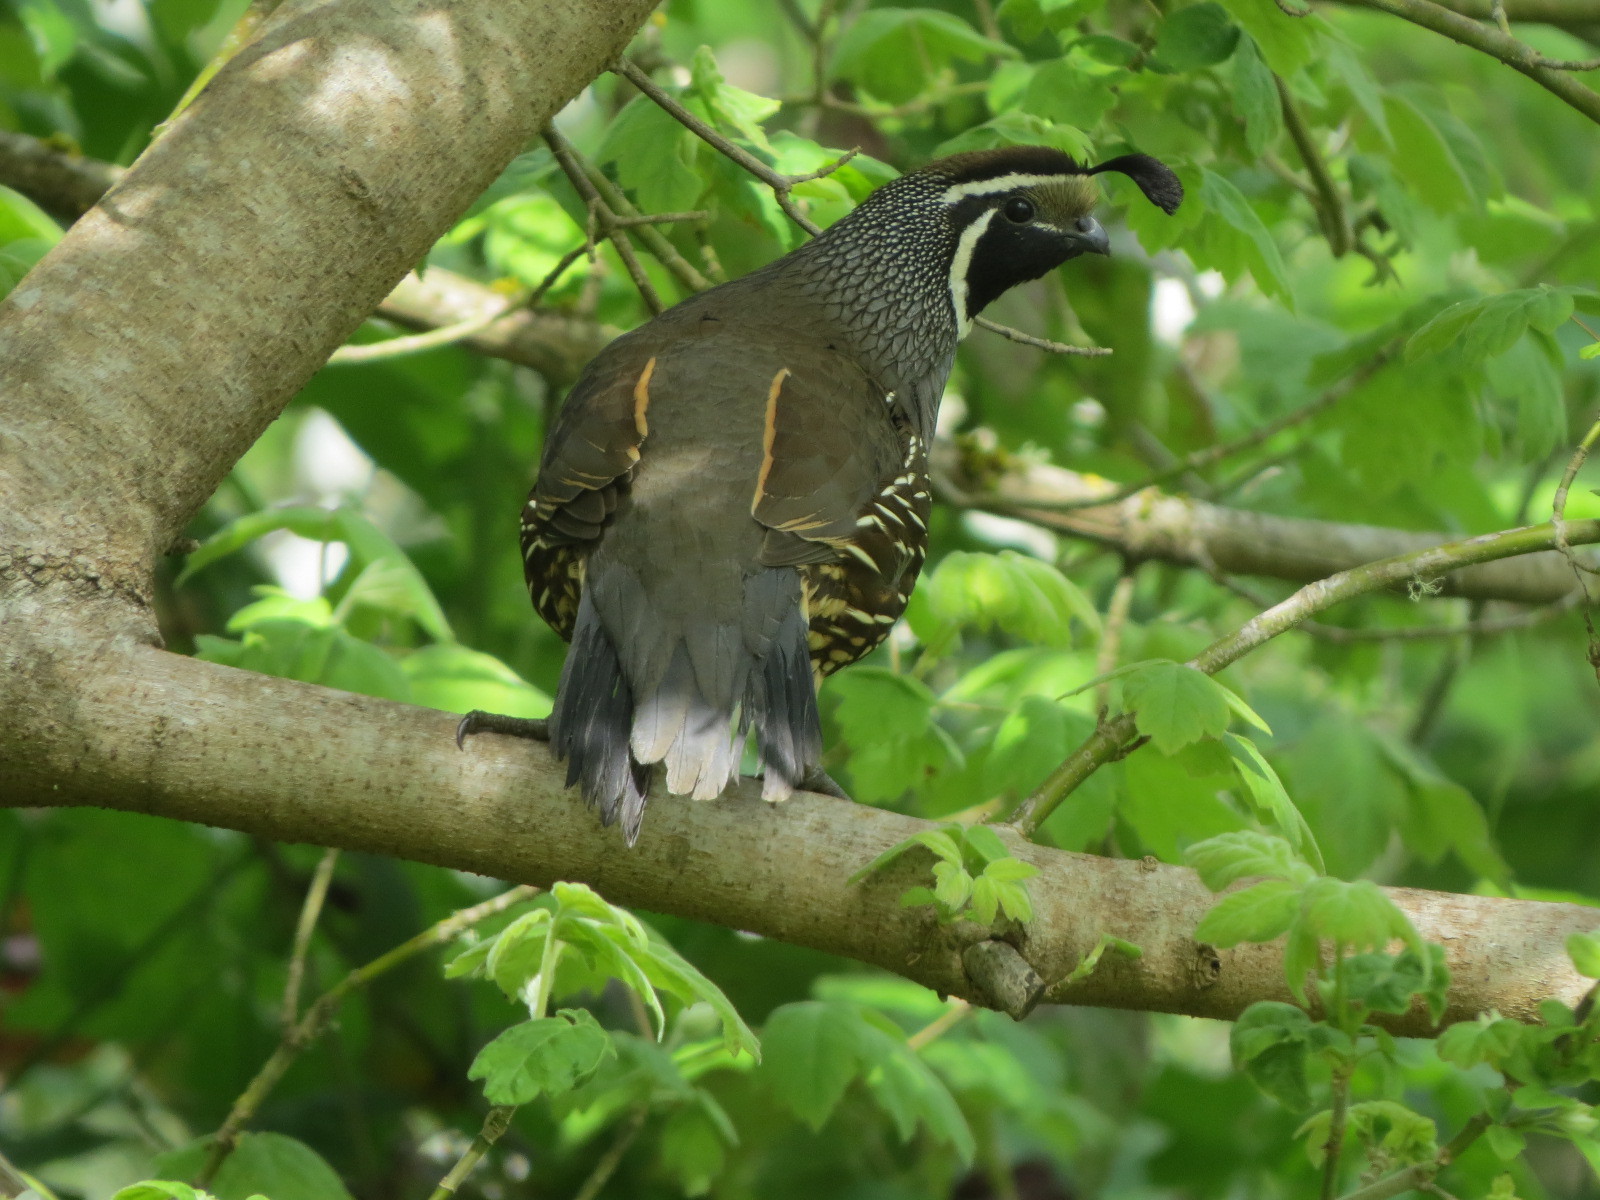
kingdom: Animalia
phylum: Chordata
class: Aves
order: Galliformes
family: Odontophoridae
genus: Callipepla
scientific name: Callipepla californica
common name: California quail
